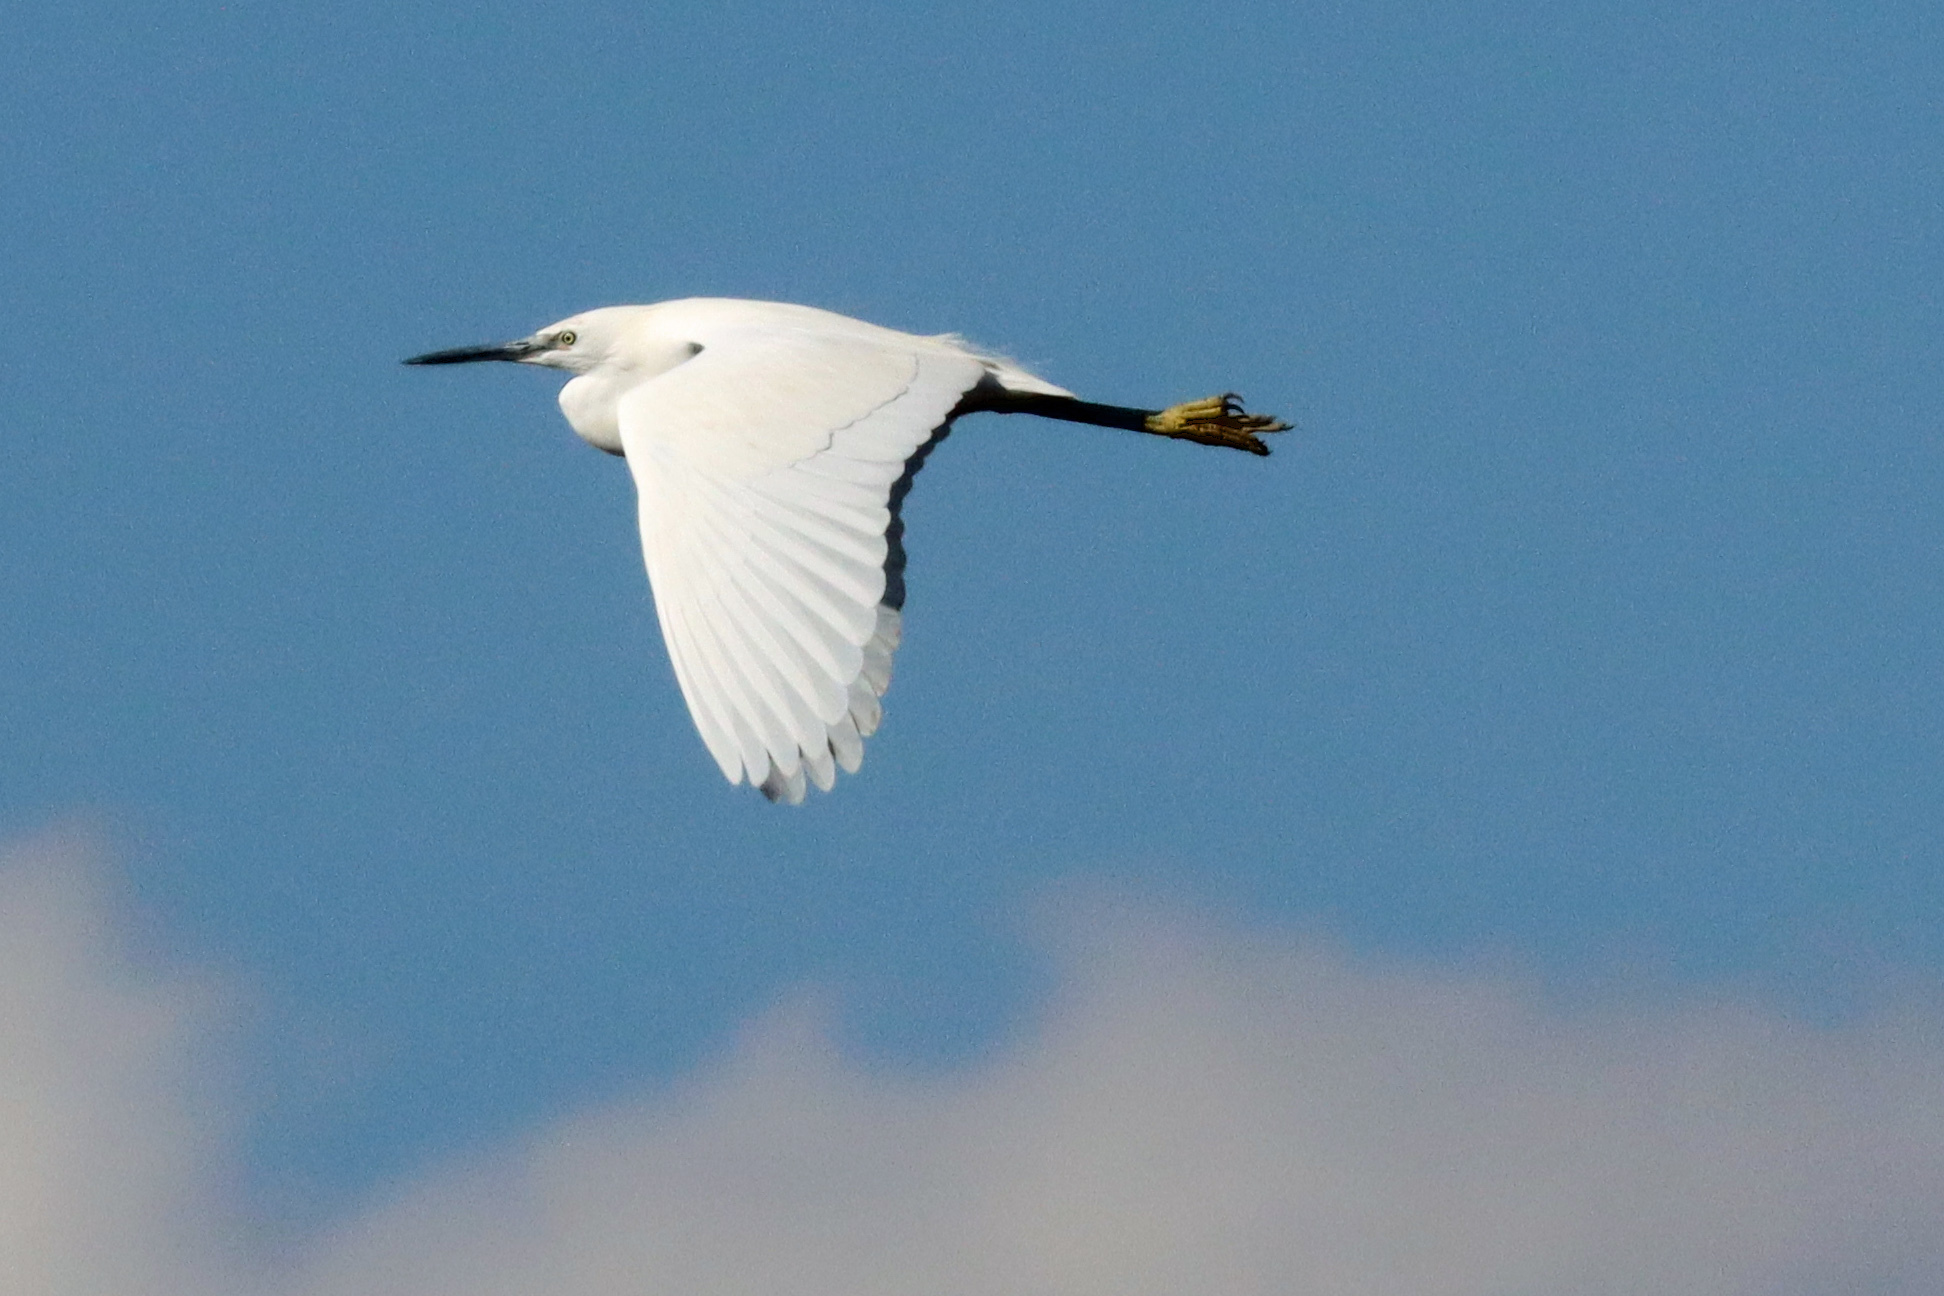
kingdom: Animalia
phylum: Chordata
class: Aves
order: Pelecaniformes
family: Ardeidae
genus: Egretta
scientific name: Egretta garzetta
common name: Little egret
